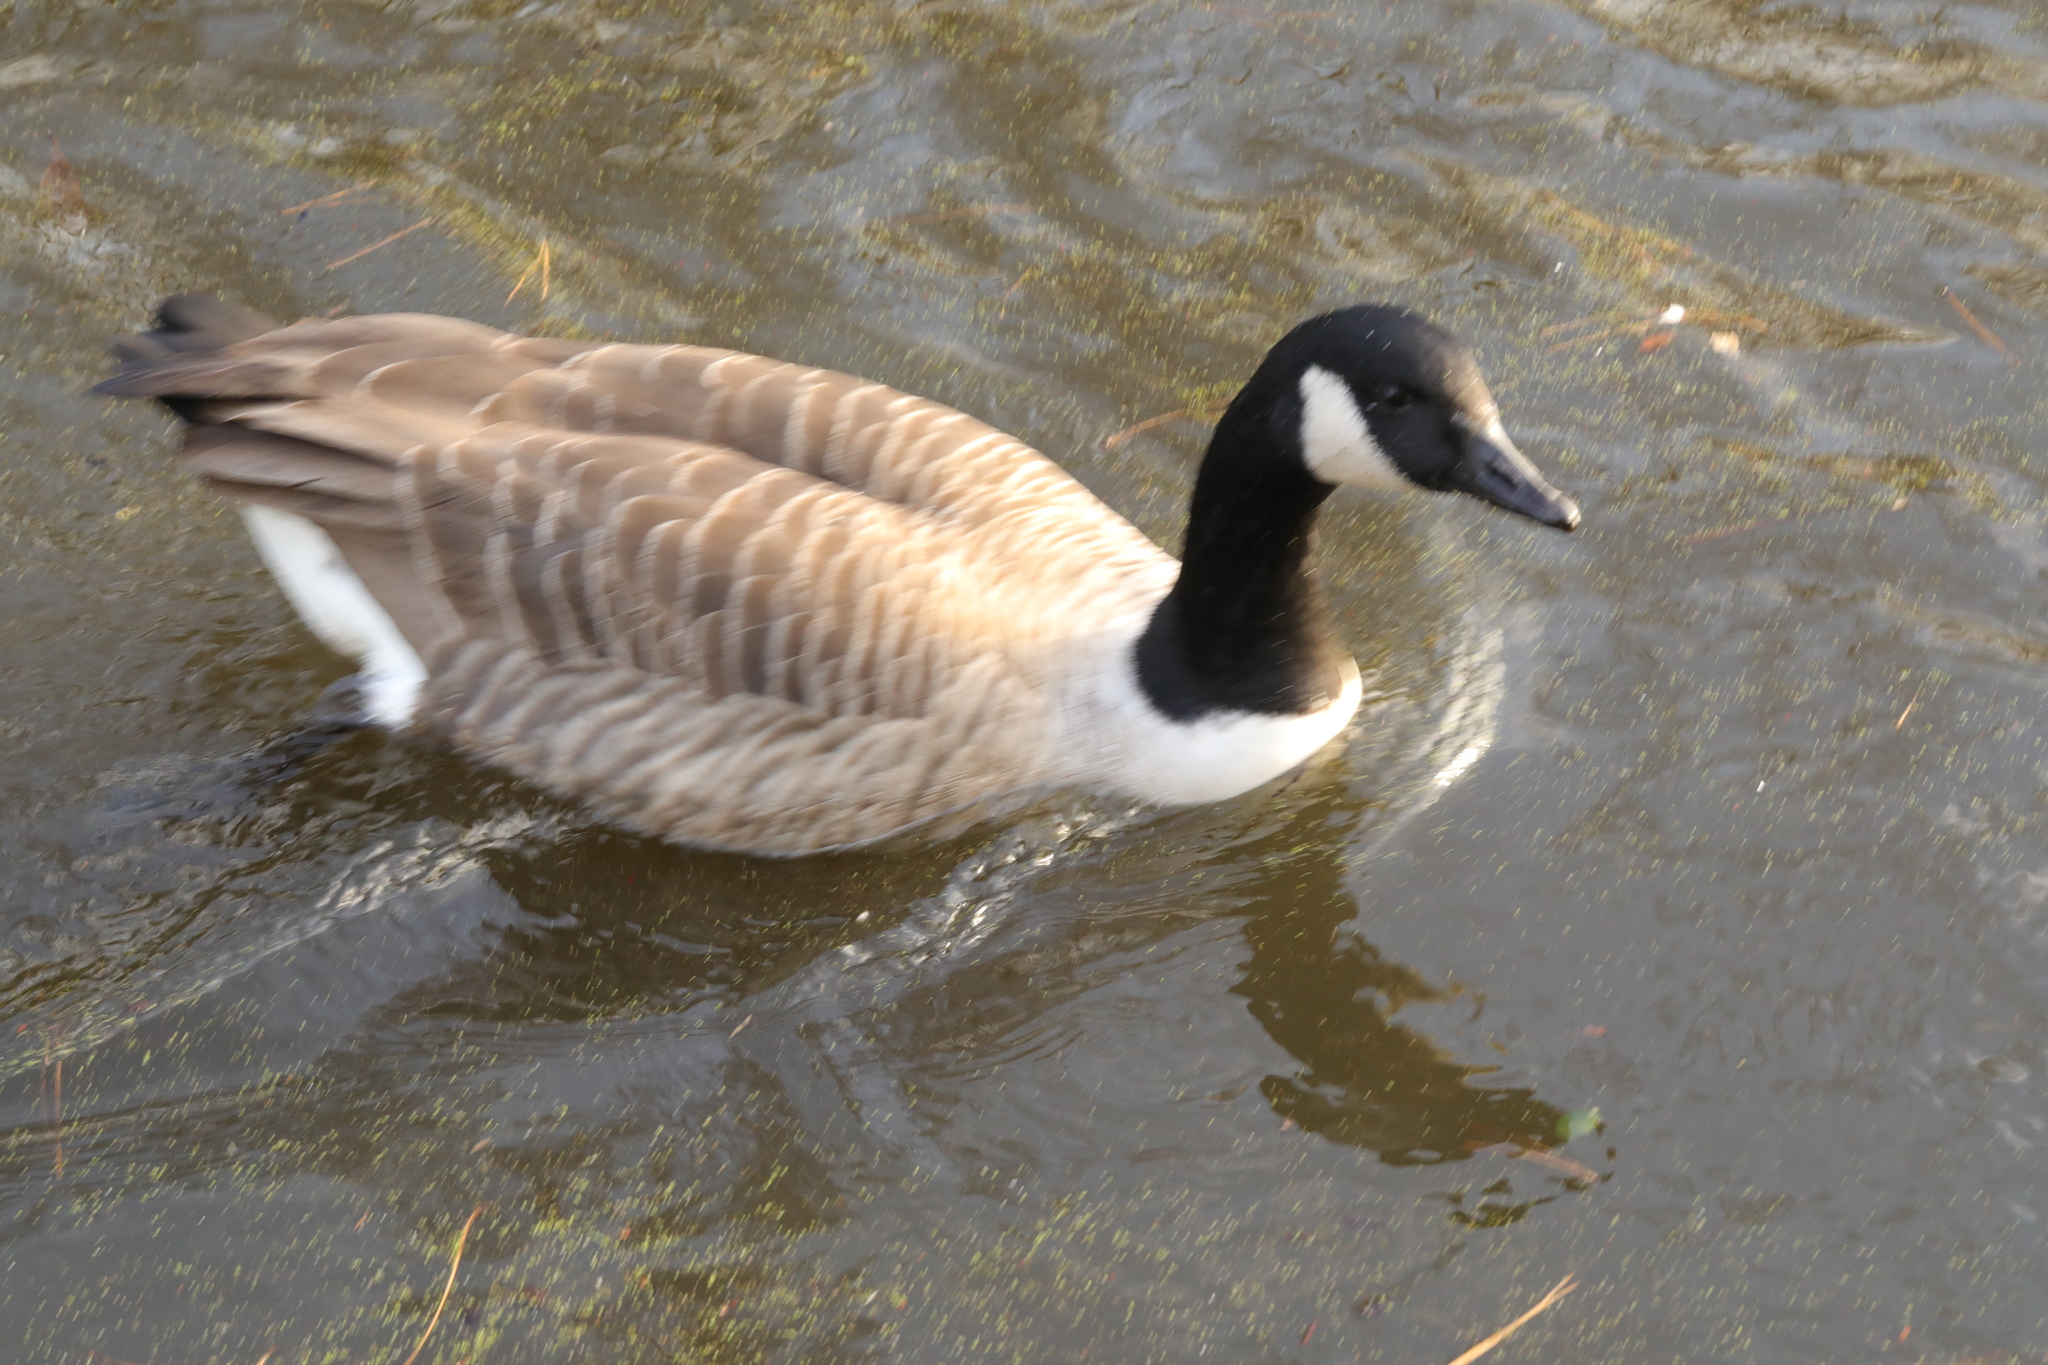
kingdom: Animalia
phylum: Chordata
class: Aves
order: Anseriformes
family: Anatidae
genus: Branta
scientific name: Branta canadensis
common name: Canada goose
